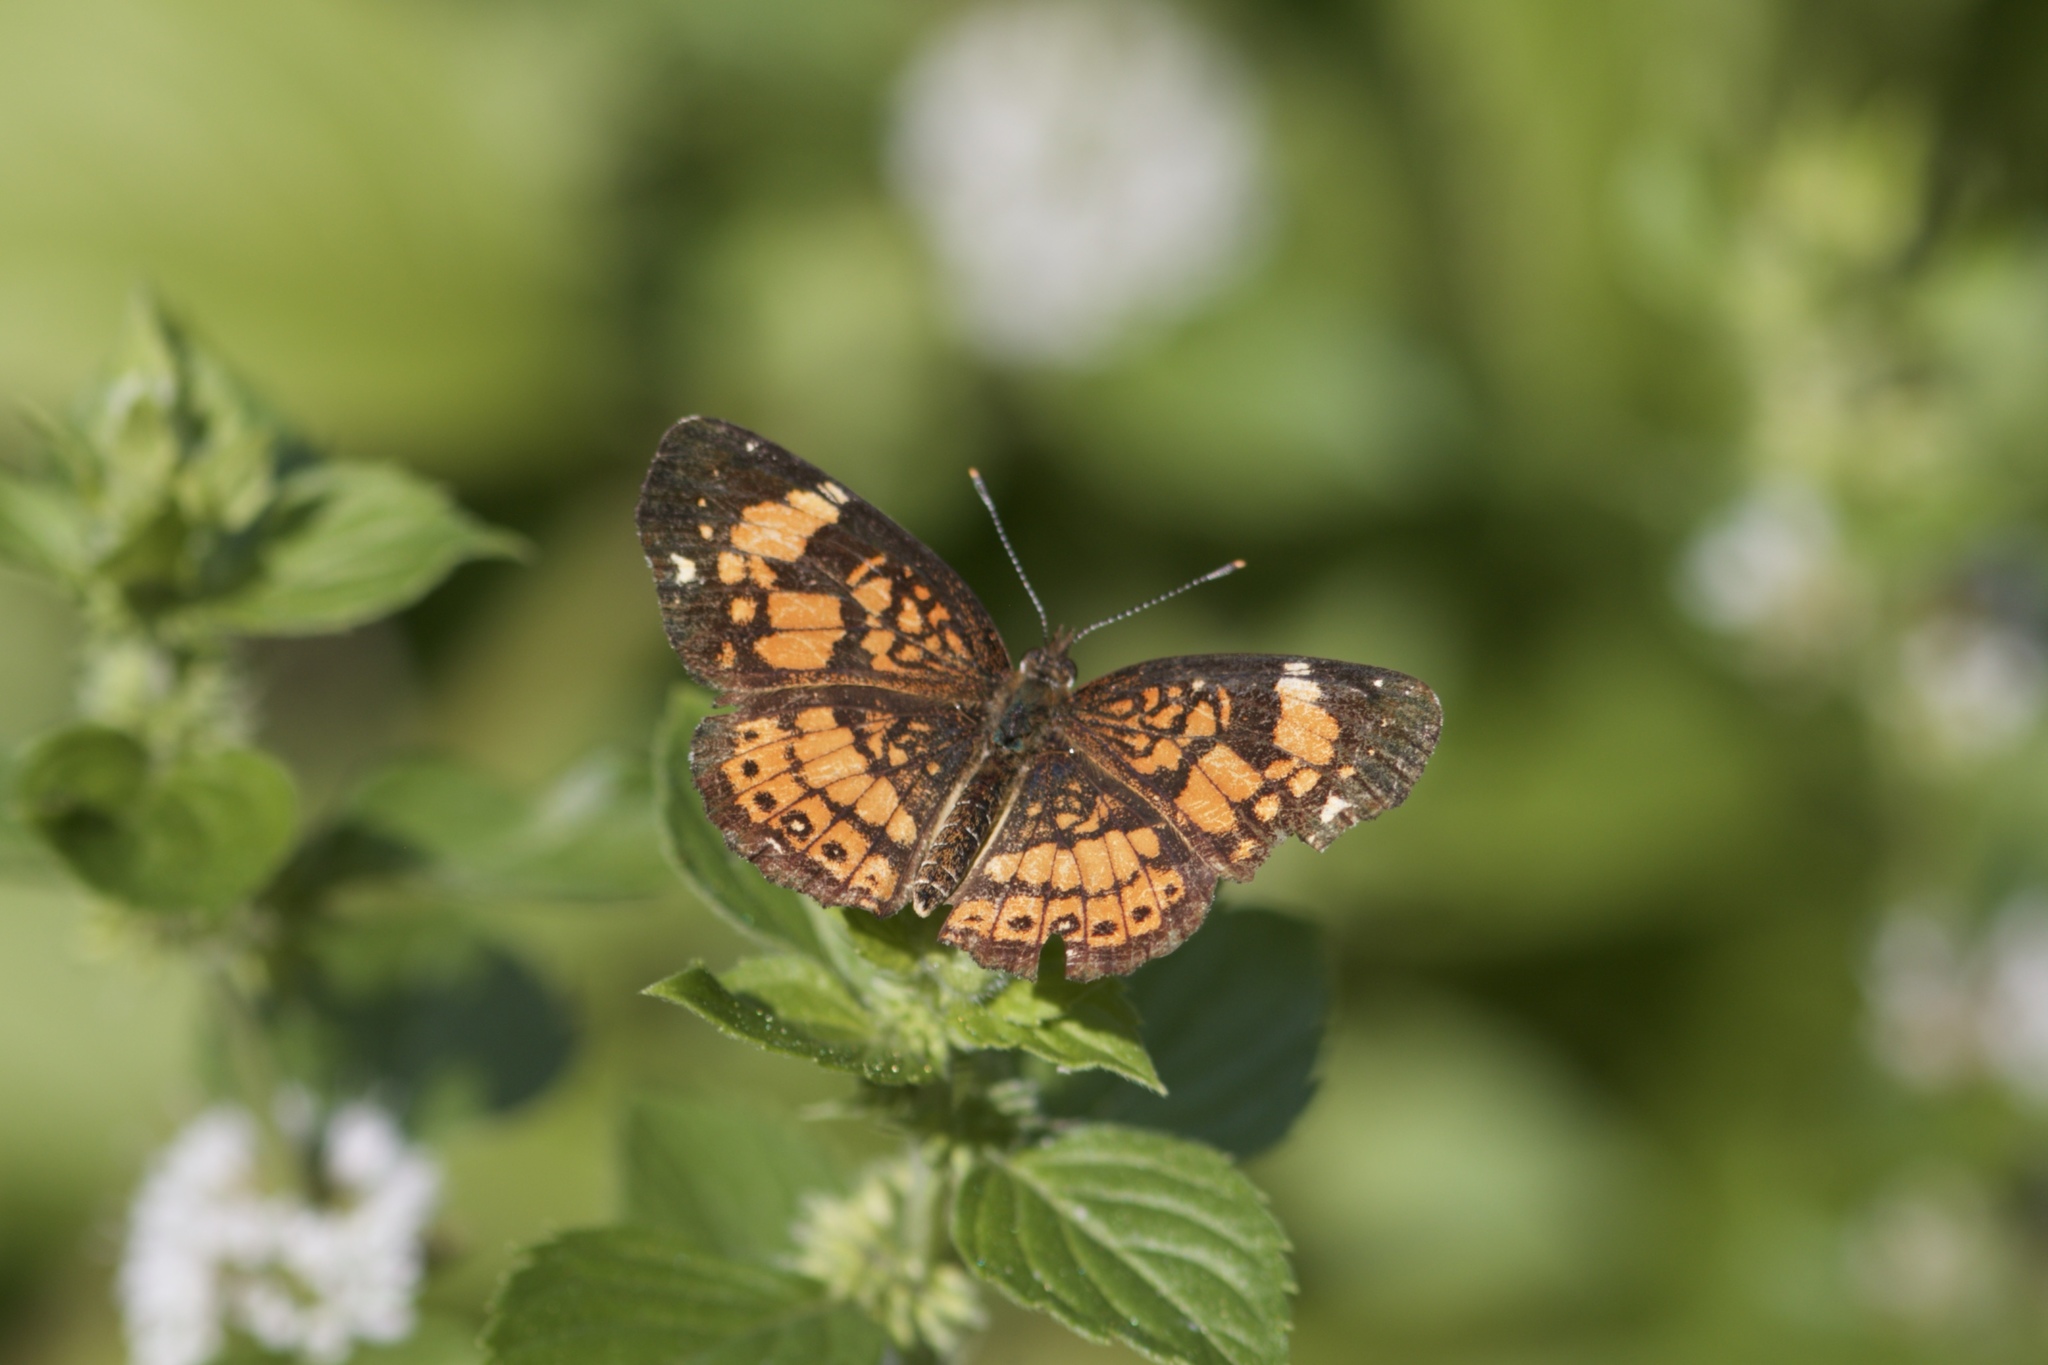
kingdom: Animalia
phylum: Arthropoda
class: Insecta
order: Lepidoptera
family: Nymphalidae
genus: Chlosyne
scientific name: Chlosyne nycteis
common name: Silvery checkerspot
